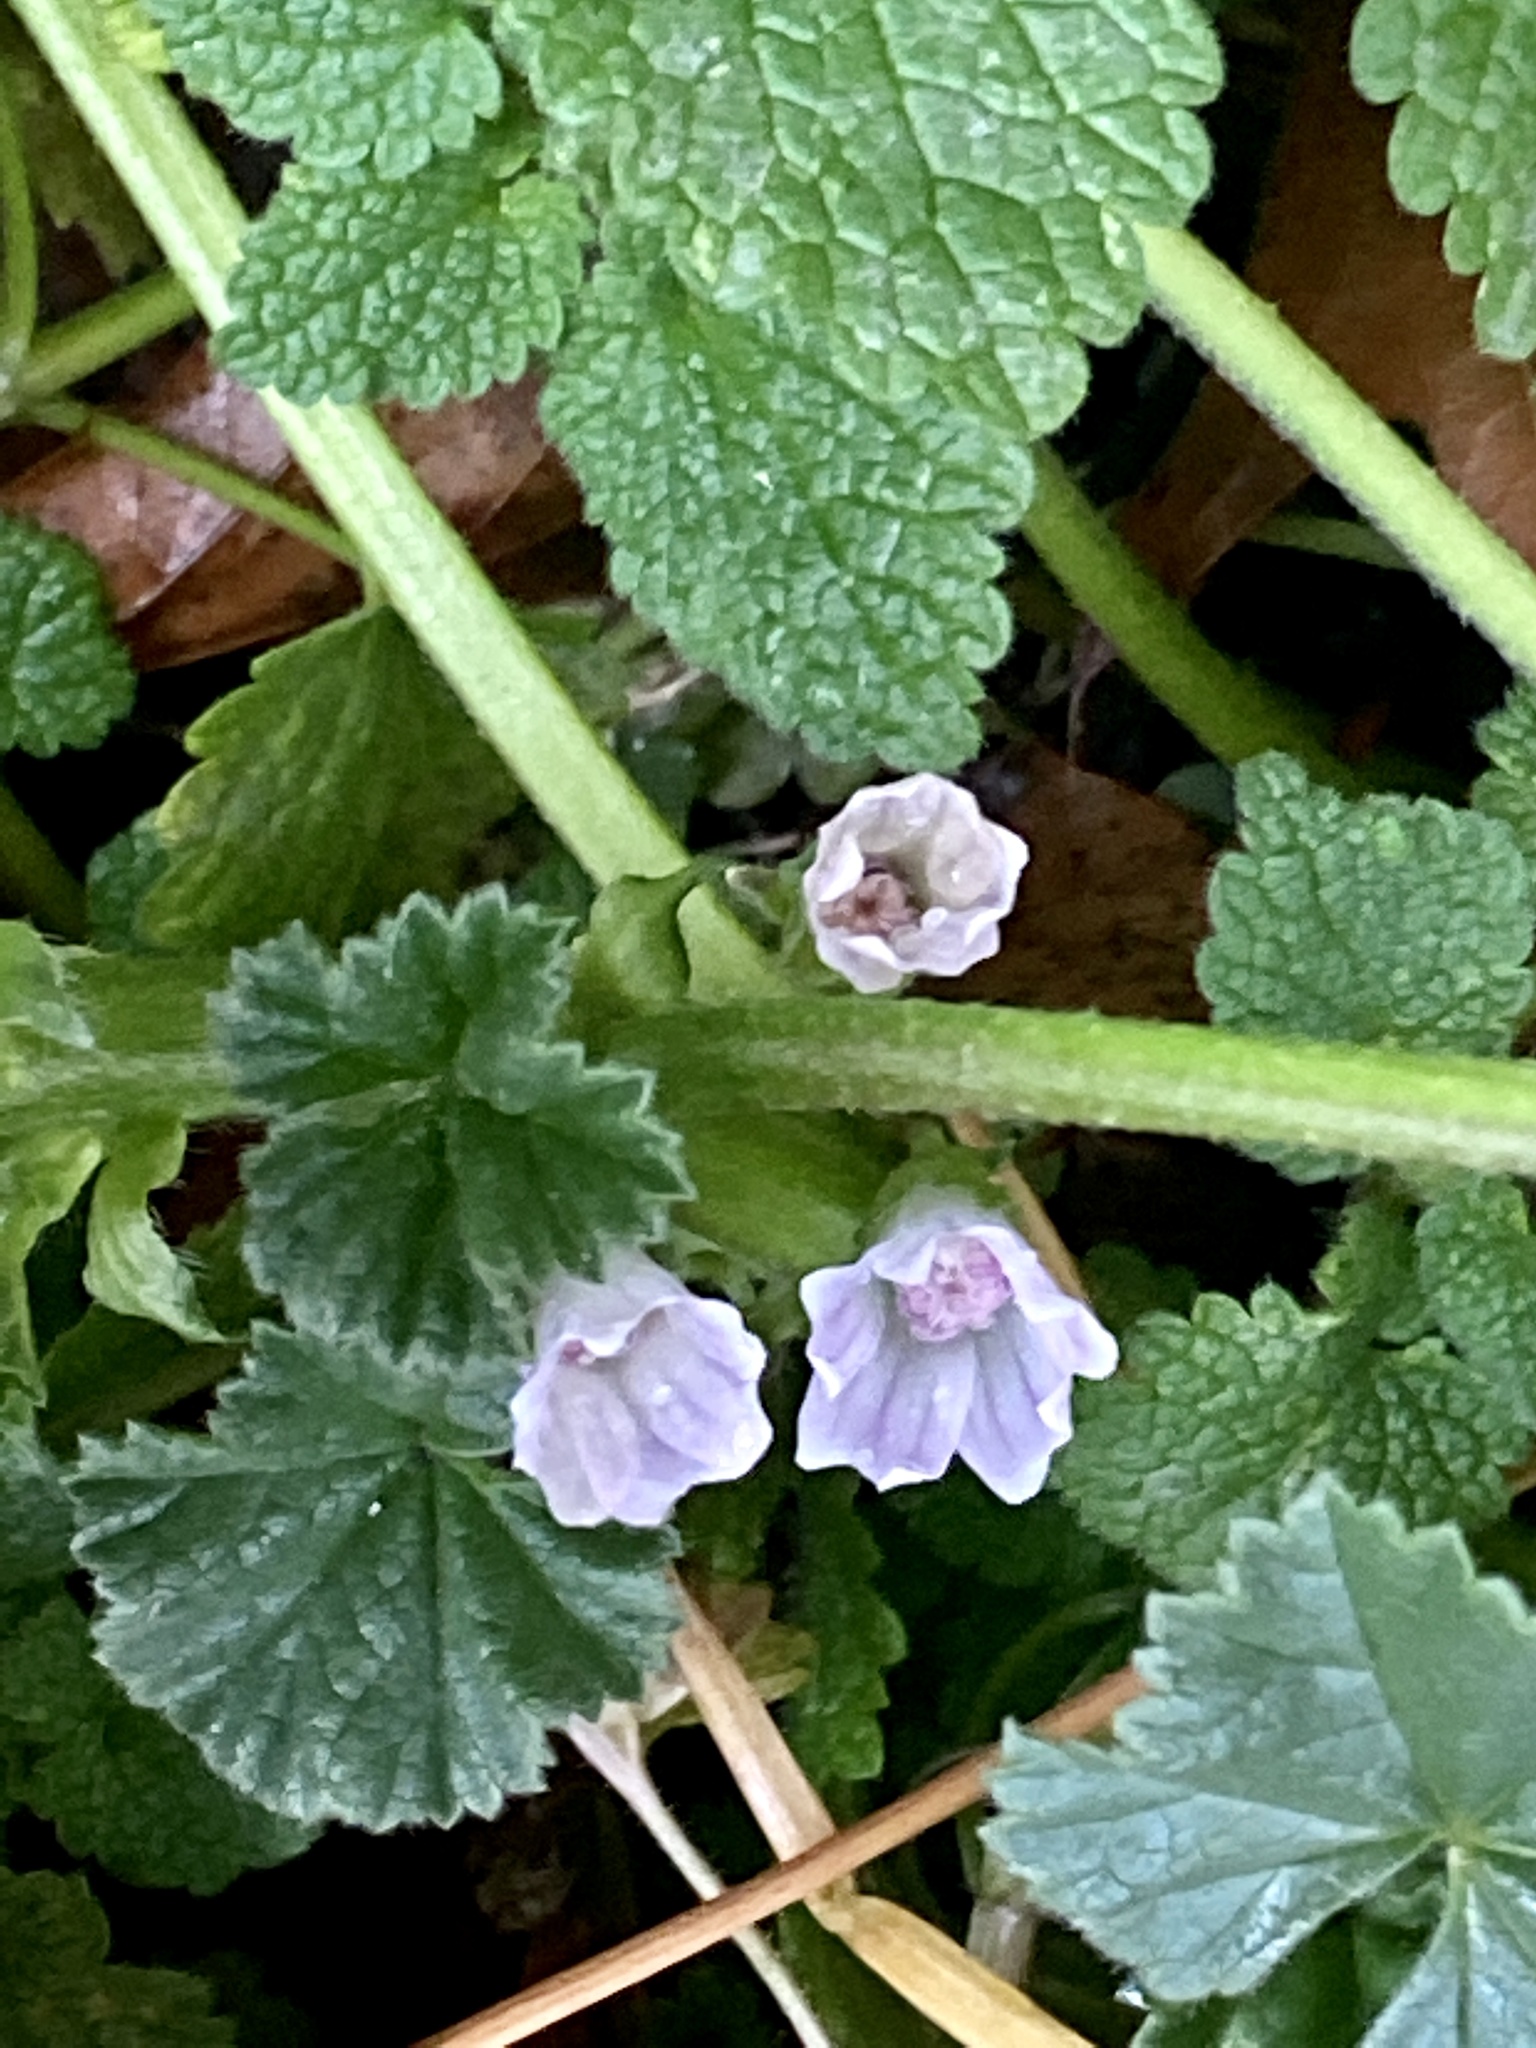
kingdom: Plantae
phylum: Tracheophyta
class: Magnoliopsida
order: Malvales
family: Malvaceae
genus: Malva
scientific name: Malva neglecta
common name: Common mallow
